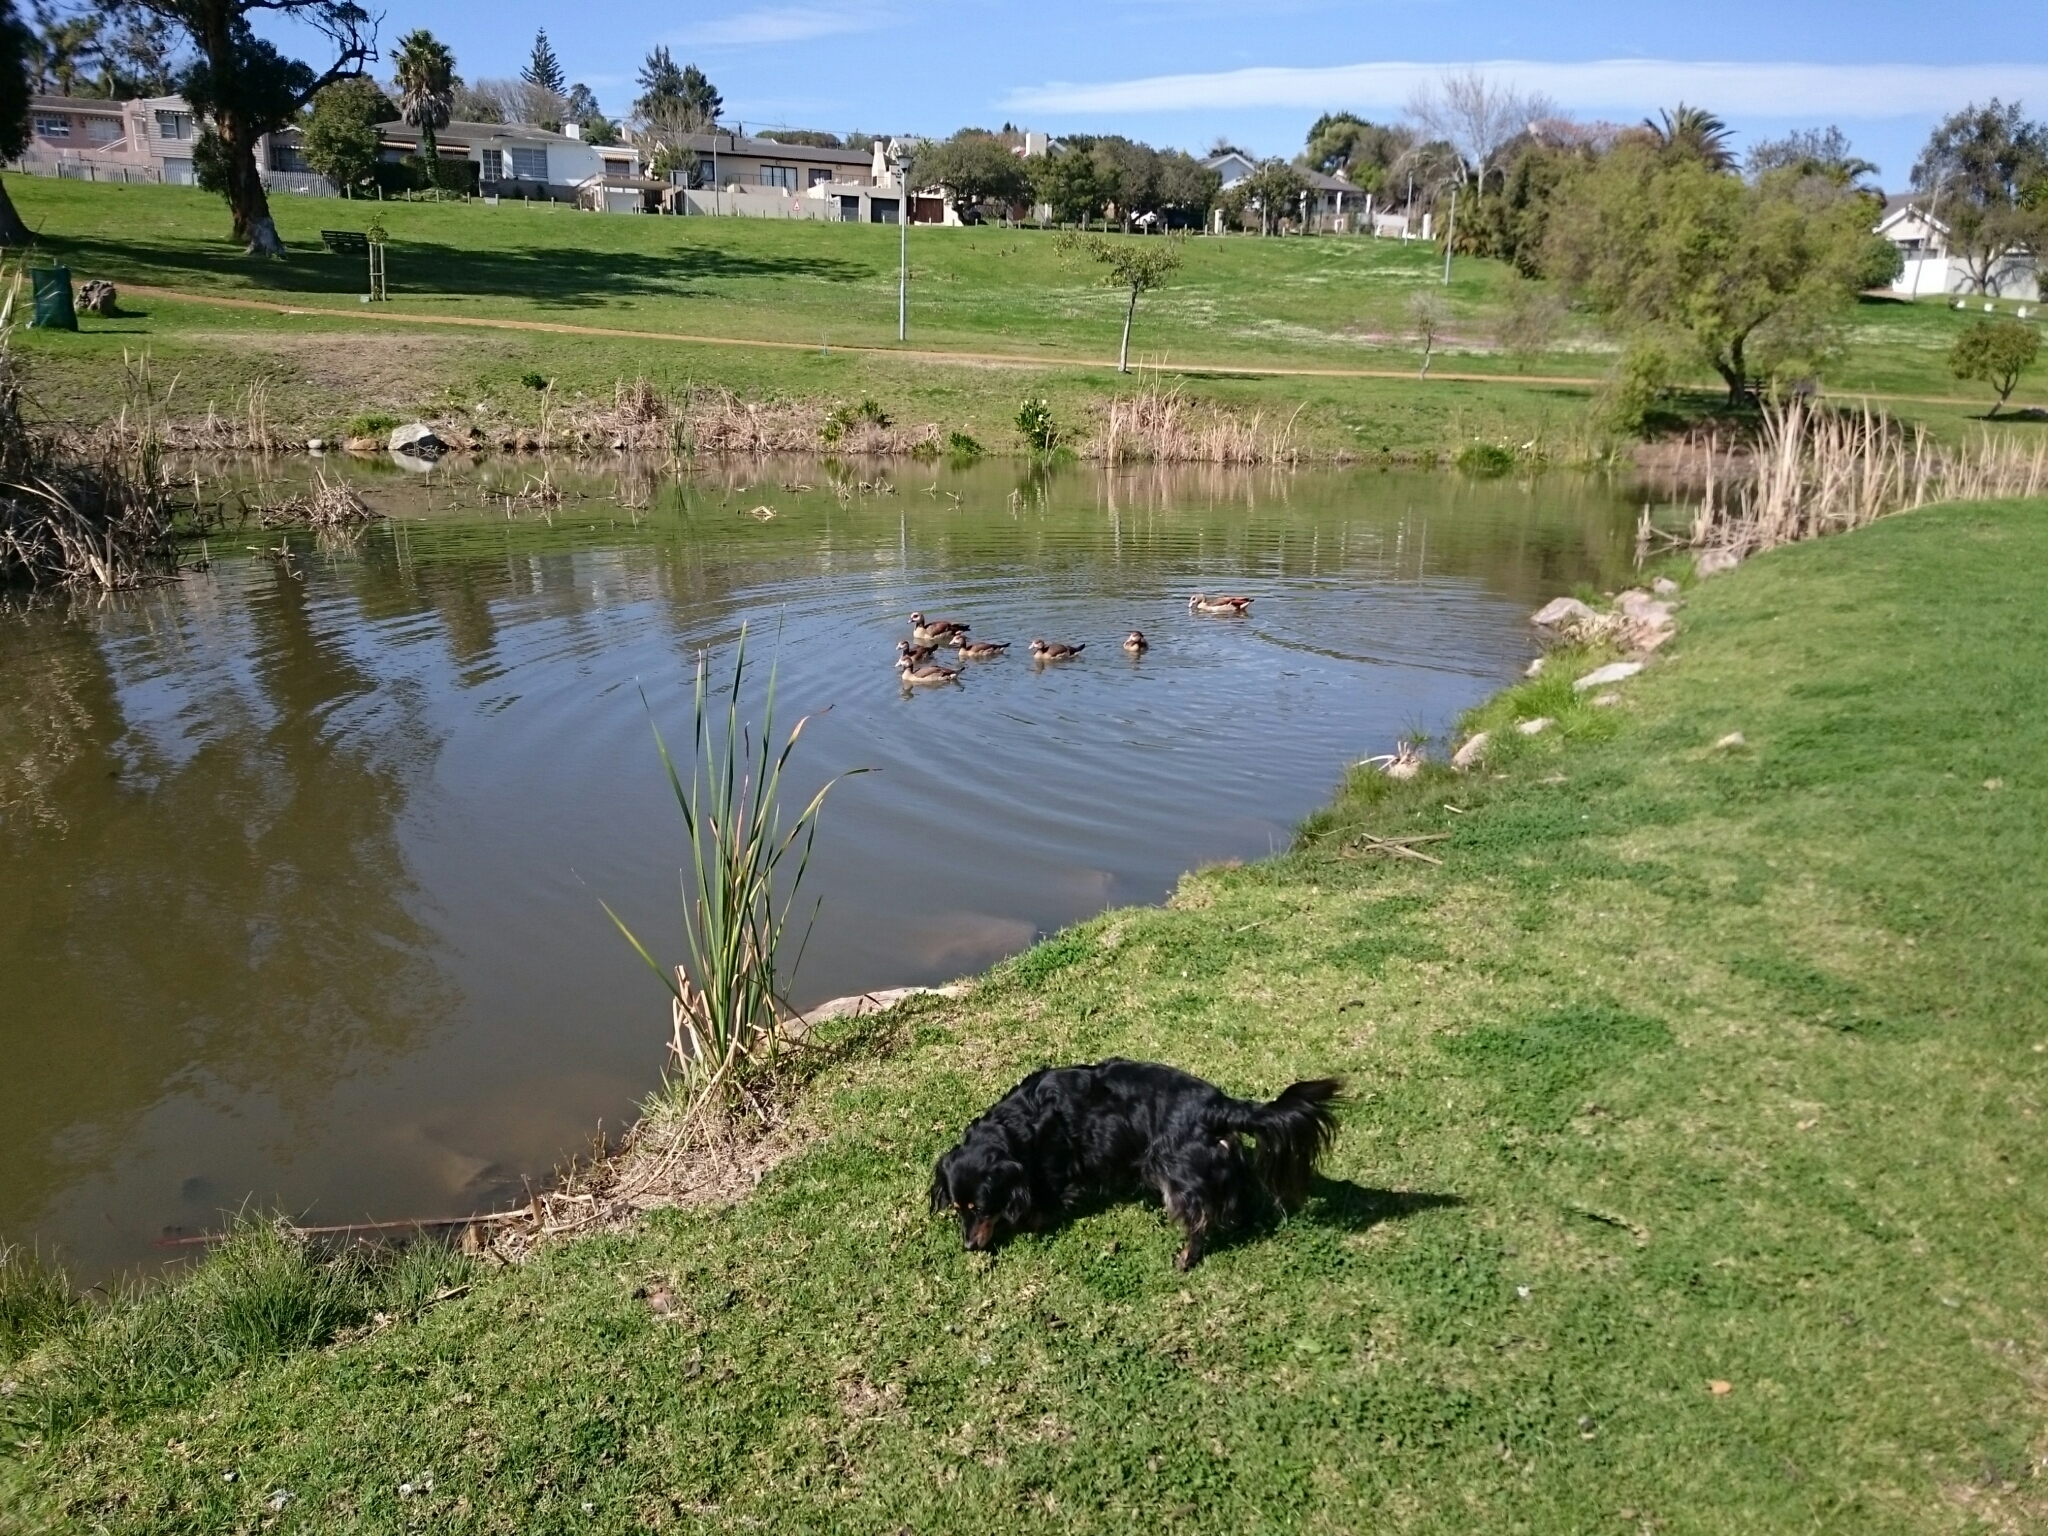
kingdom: Animalia
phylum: Chordata
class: Aves
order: Anseriformes
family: Anatidae
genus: Alopochen
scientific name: Alopochen aegyptiaca
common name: Egyptian goose
